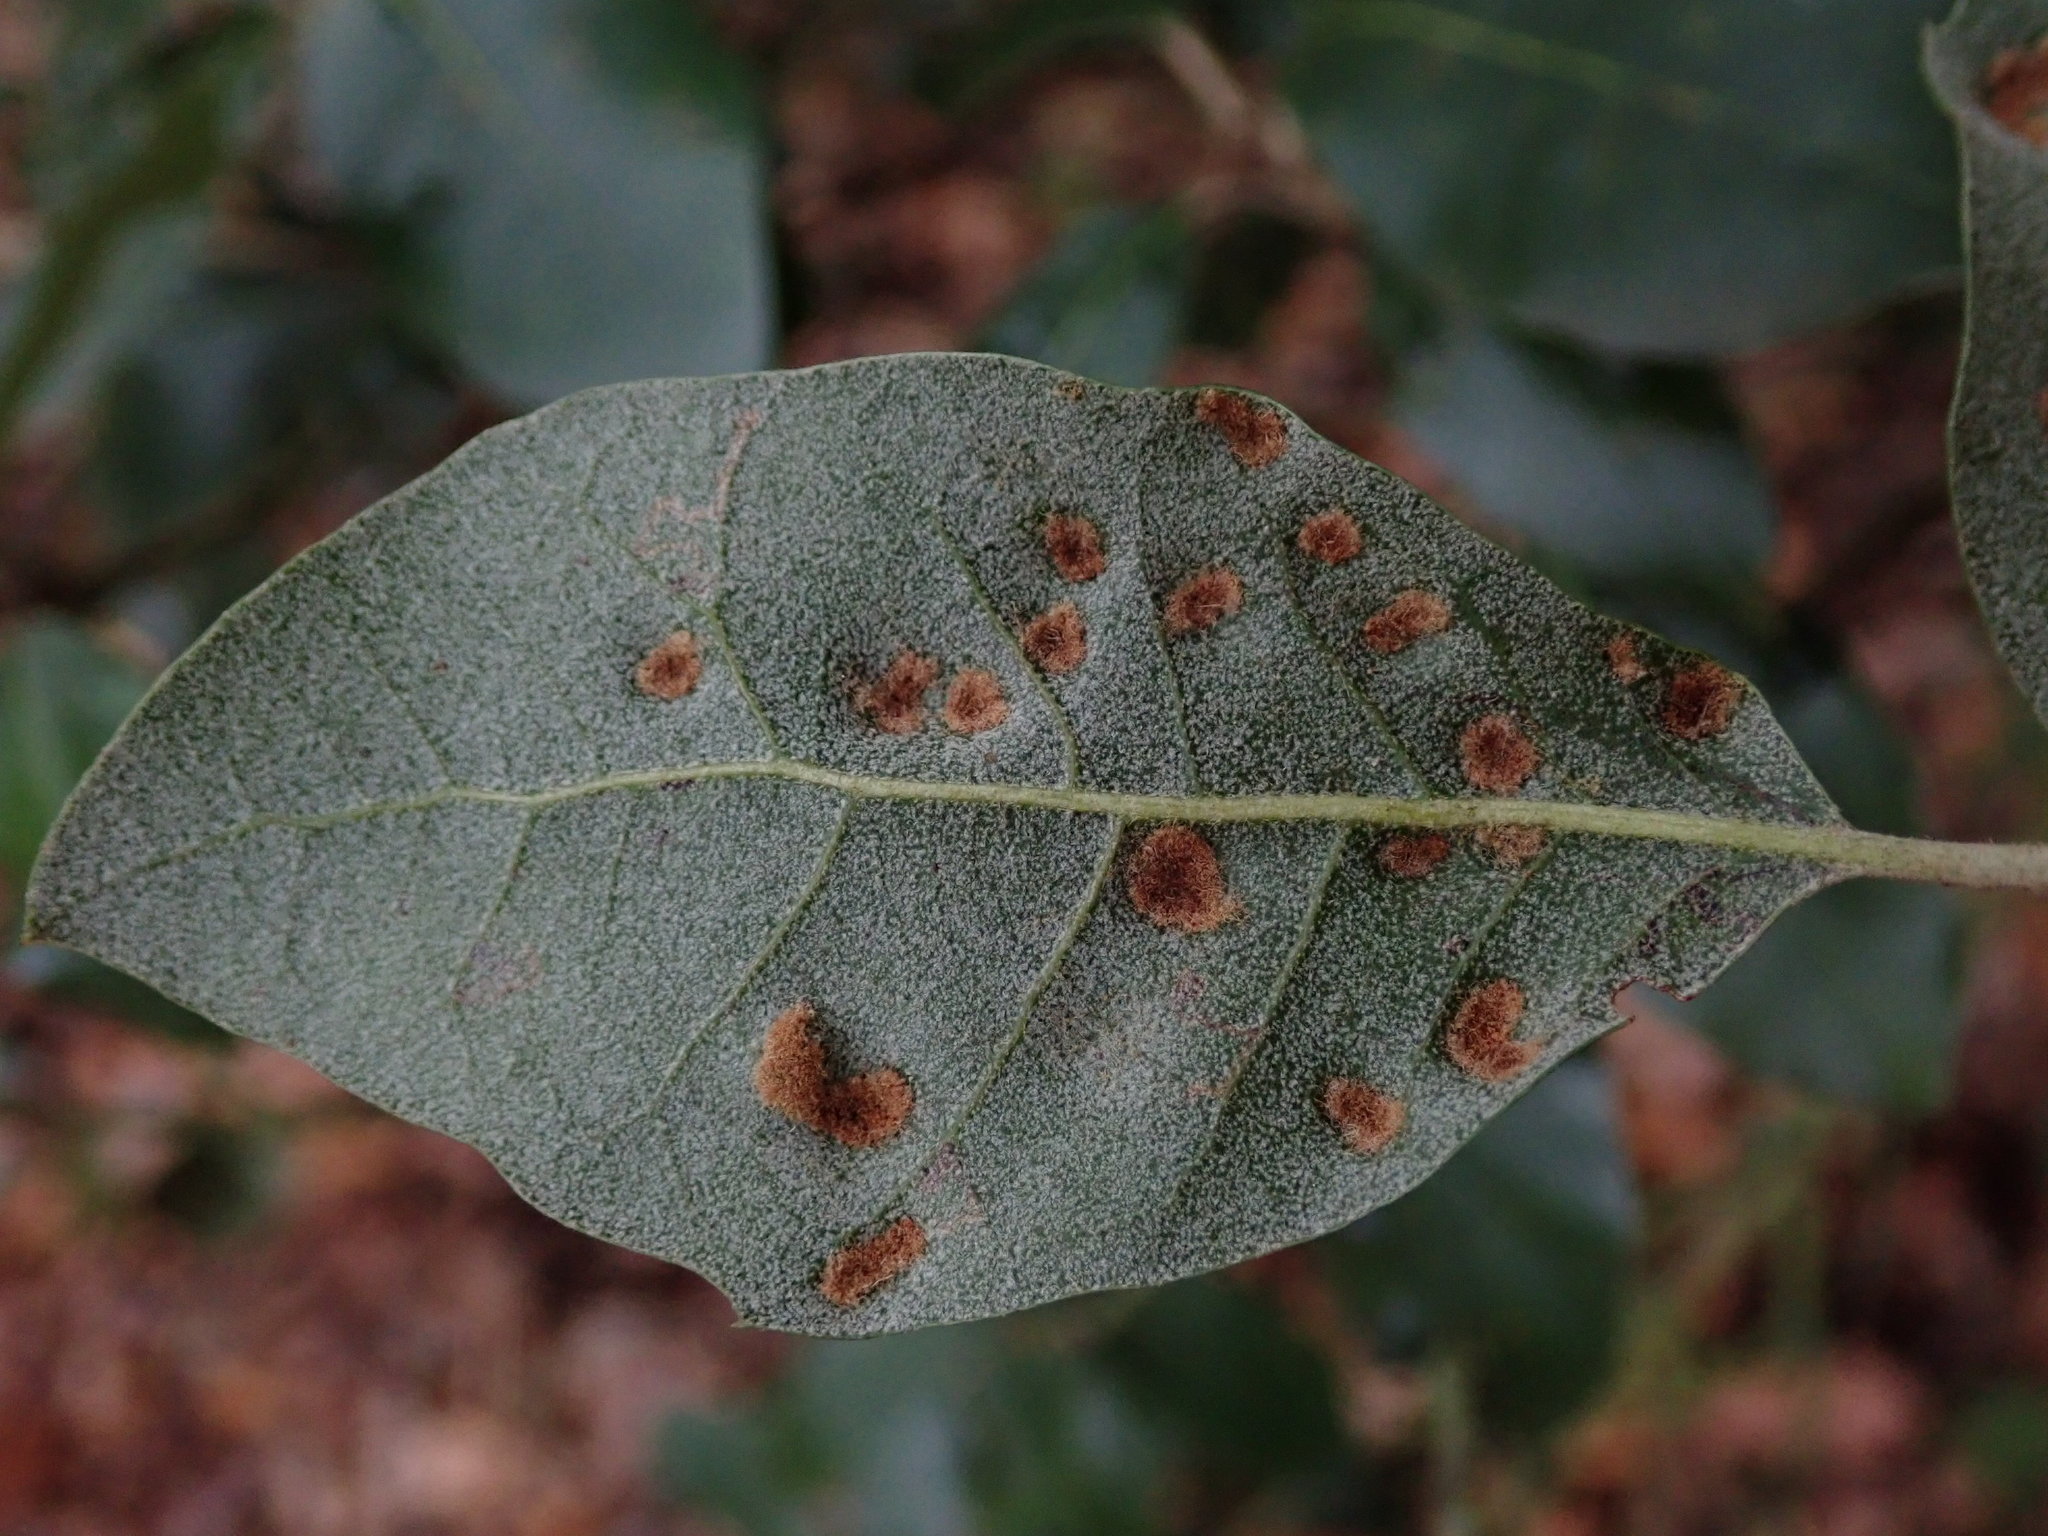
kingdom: Animalia
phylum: Arthropoda
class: Arachnida
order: Trombidiformes
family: Eriophyidae
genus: Aceria
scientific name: Aceria ilicis
